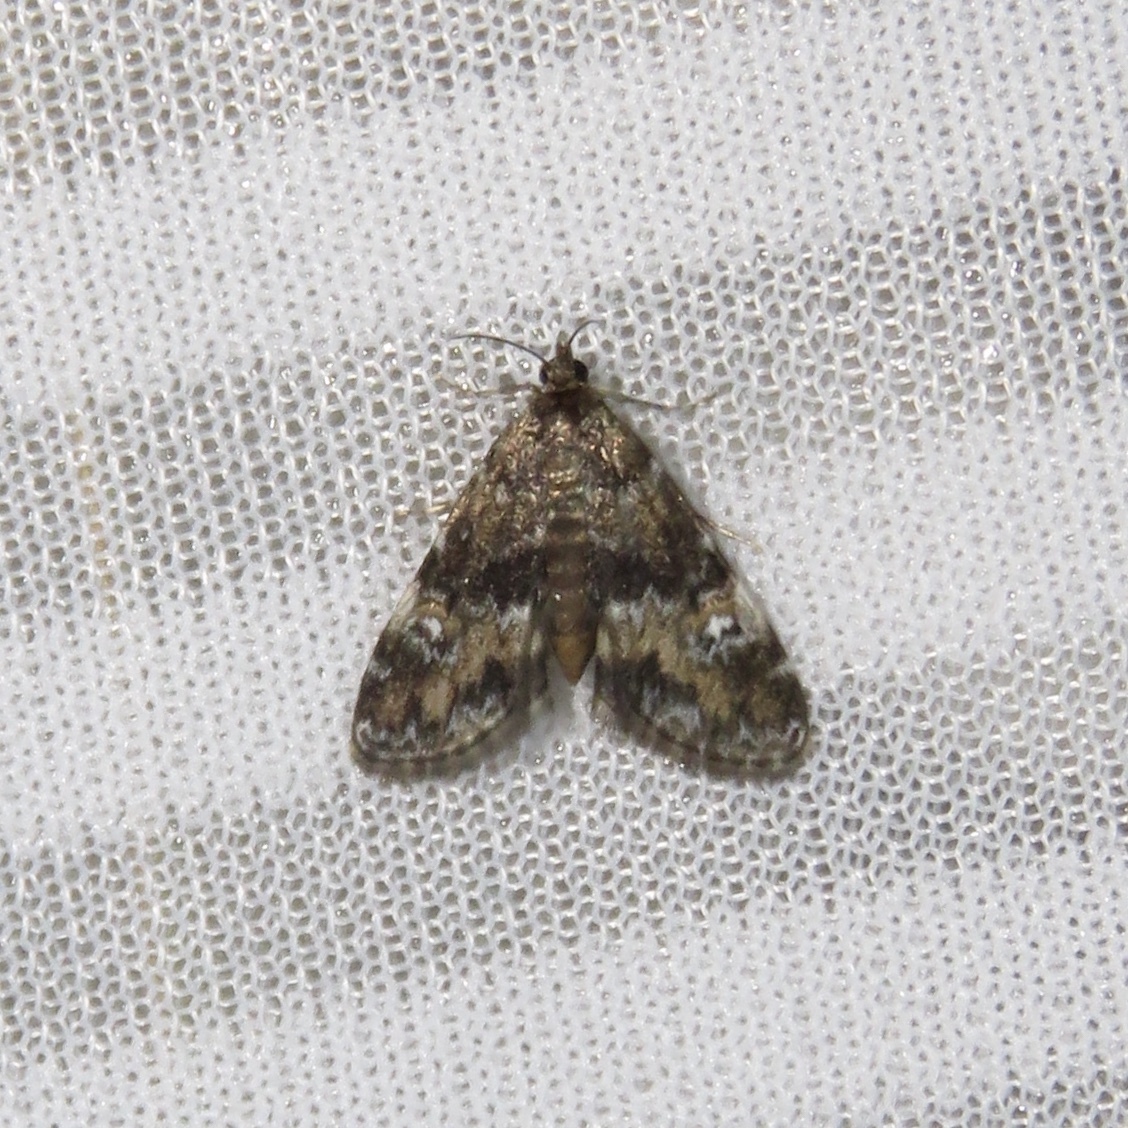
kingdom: Animalia
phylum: Arthropoda
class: Insecta
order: Lepidoptera
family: Crambidae
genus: Elophila
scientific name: Elophila obliteralis
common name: Waterlily leafcutter moth
